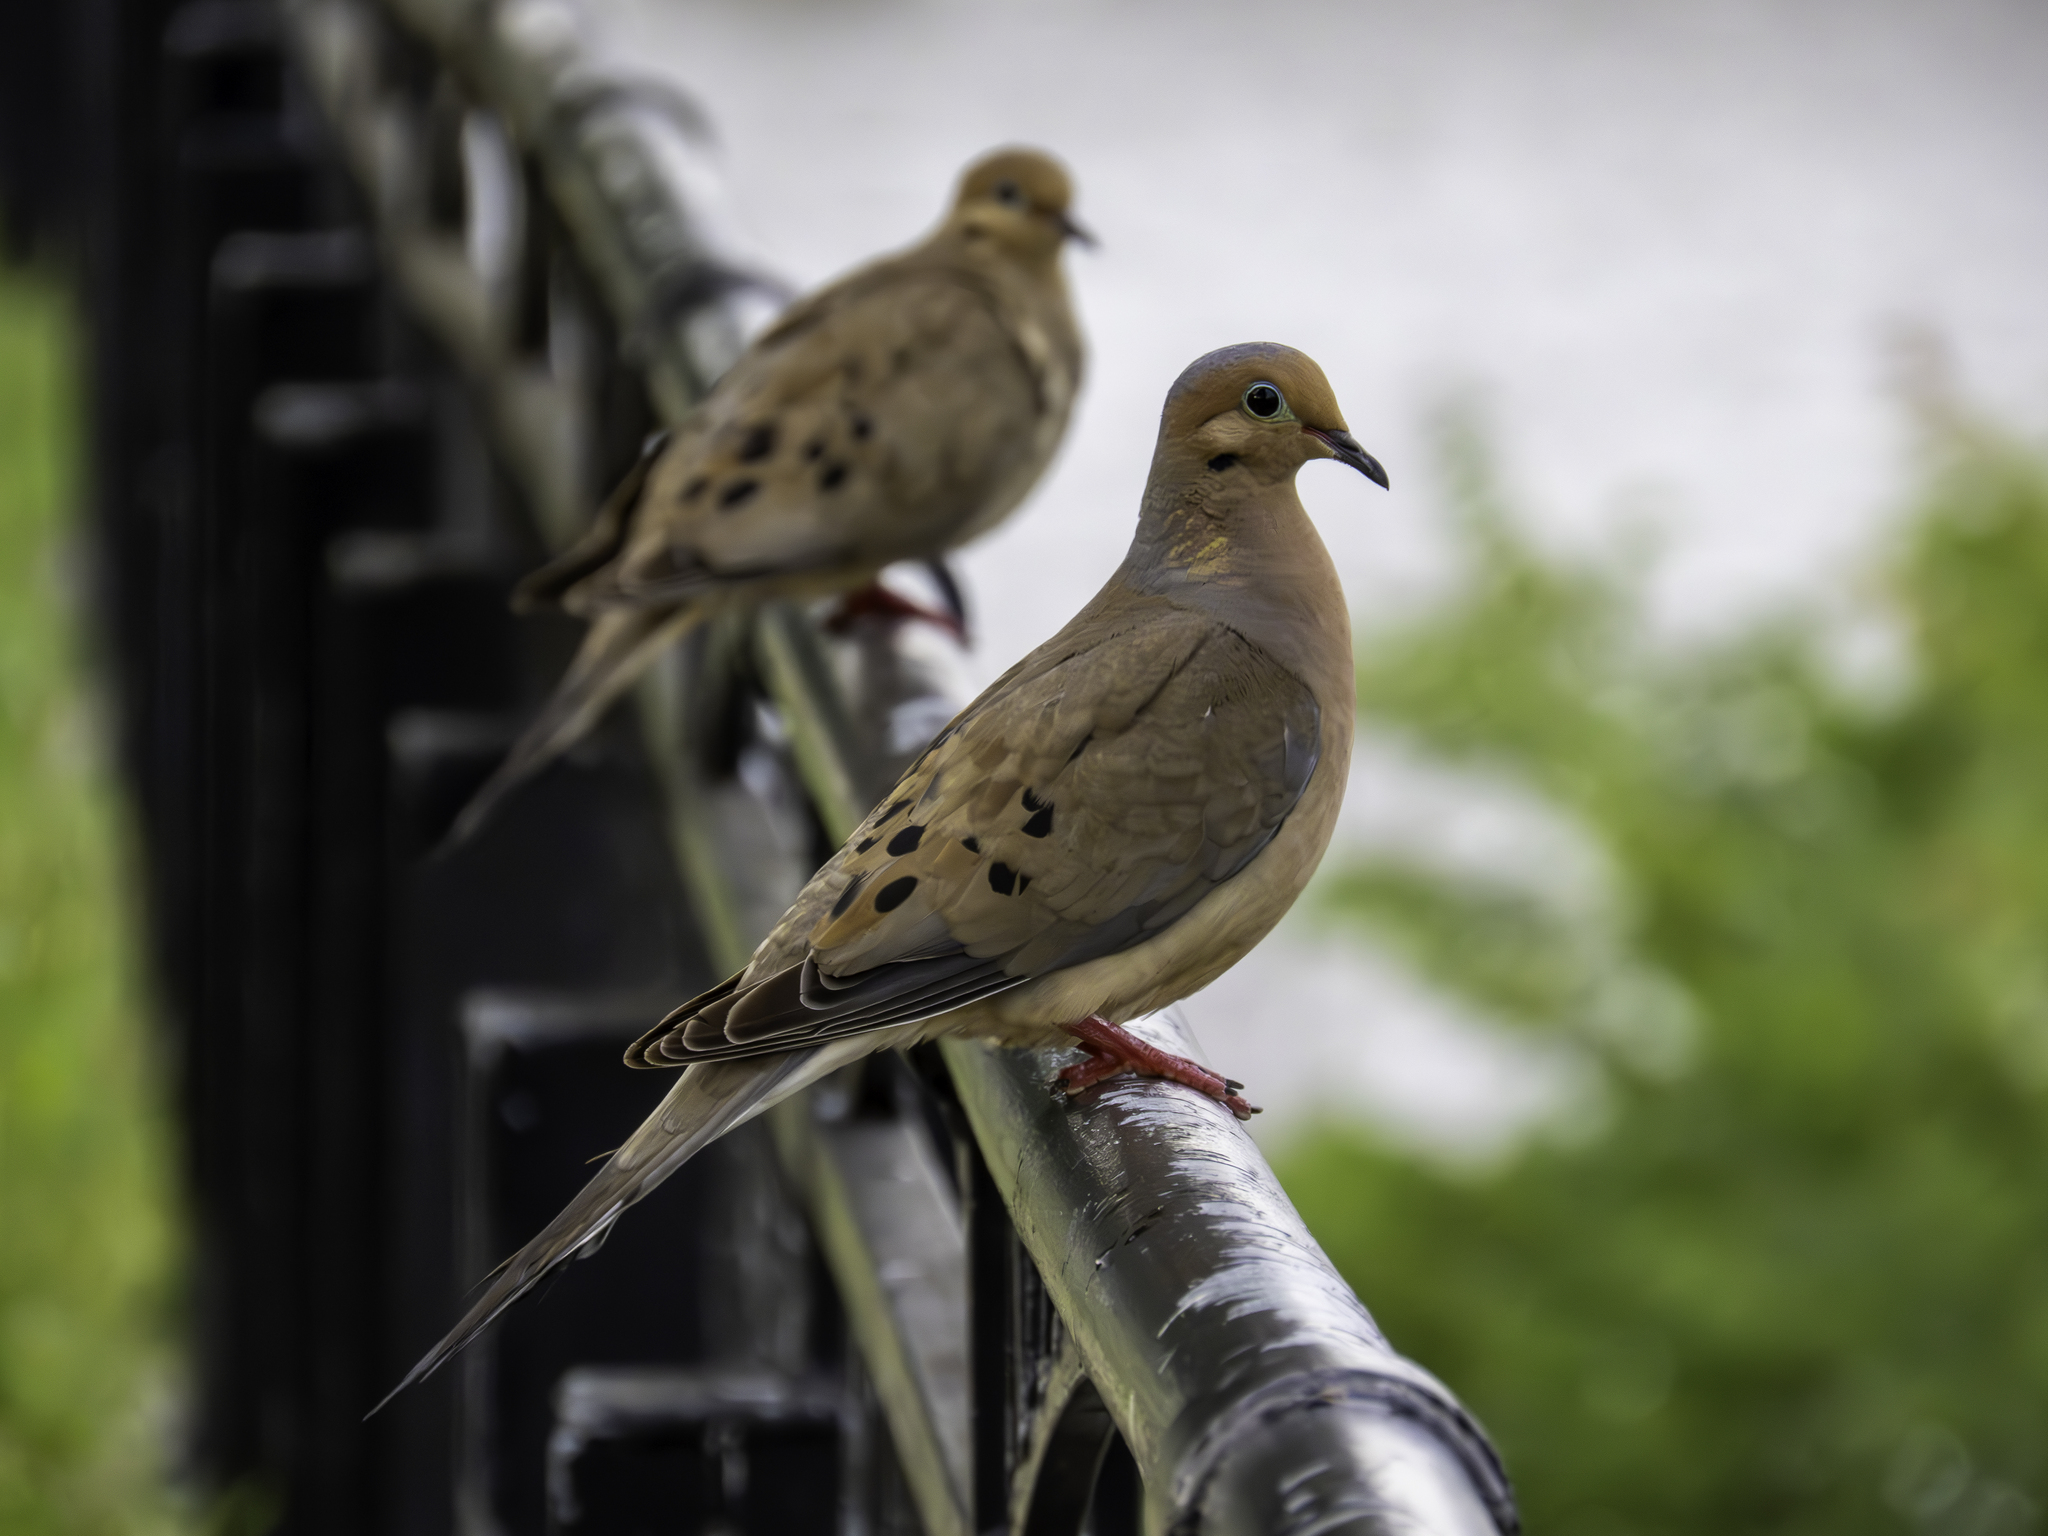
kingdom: Animalia
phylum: Chordata
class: Aves
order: Columbiformes
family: Columbidae
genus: Zenaida
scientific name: Zenaida macroura
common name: Mourning dove
